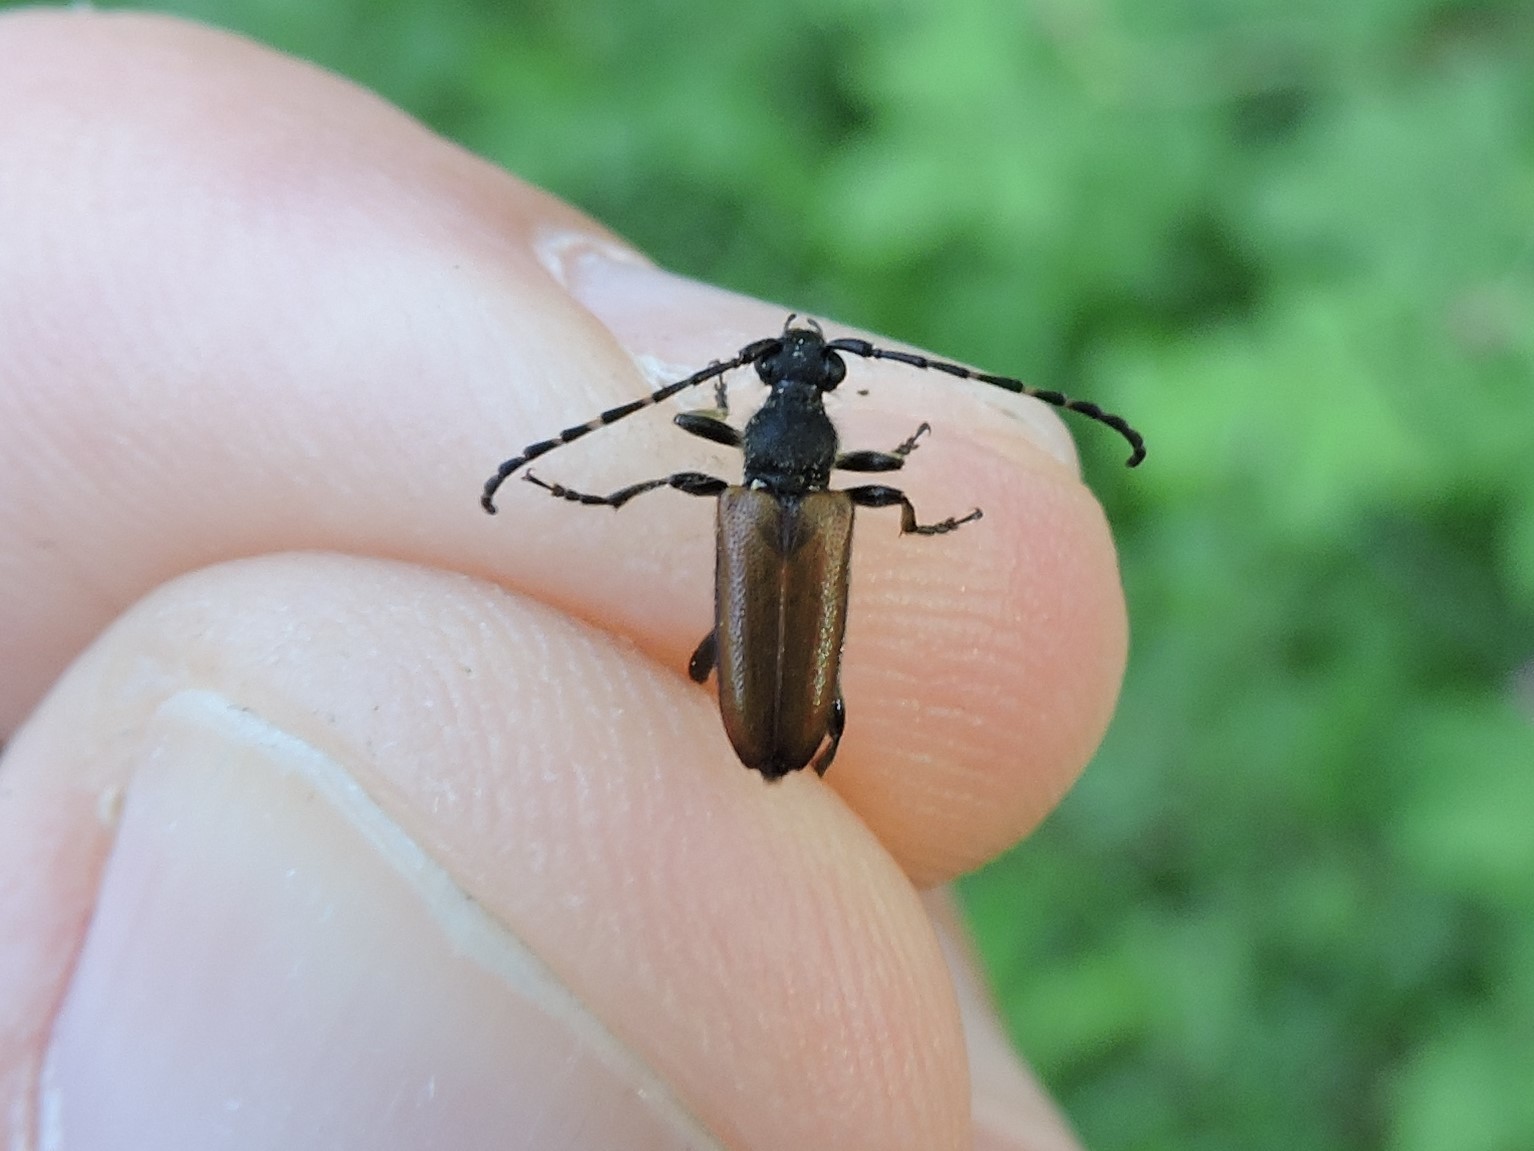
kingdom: Animalia
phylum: Arthropoda
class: Insecta
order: Coleoptera
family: Cerambycidae
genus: Paracorymbia
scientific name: Paracorymbia maculicornis
